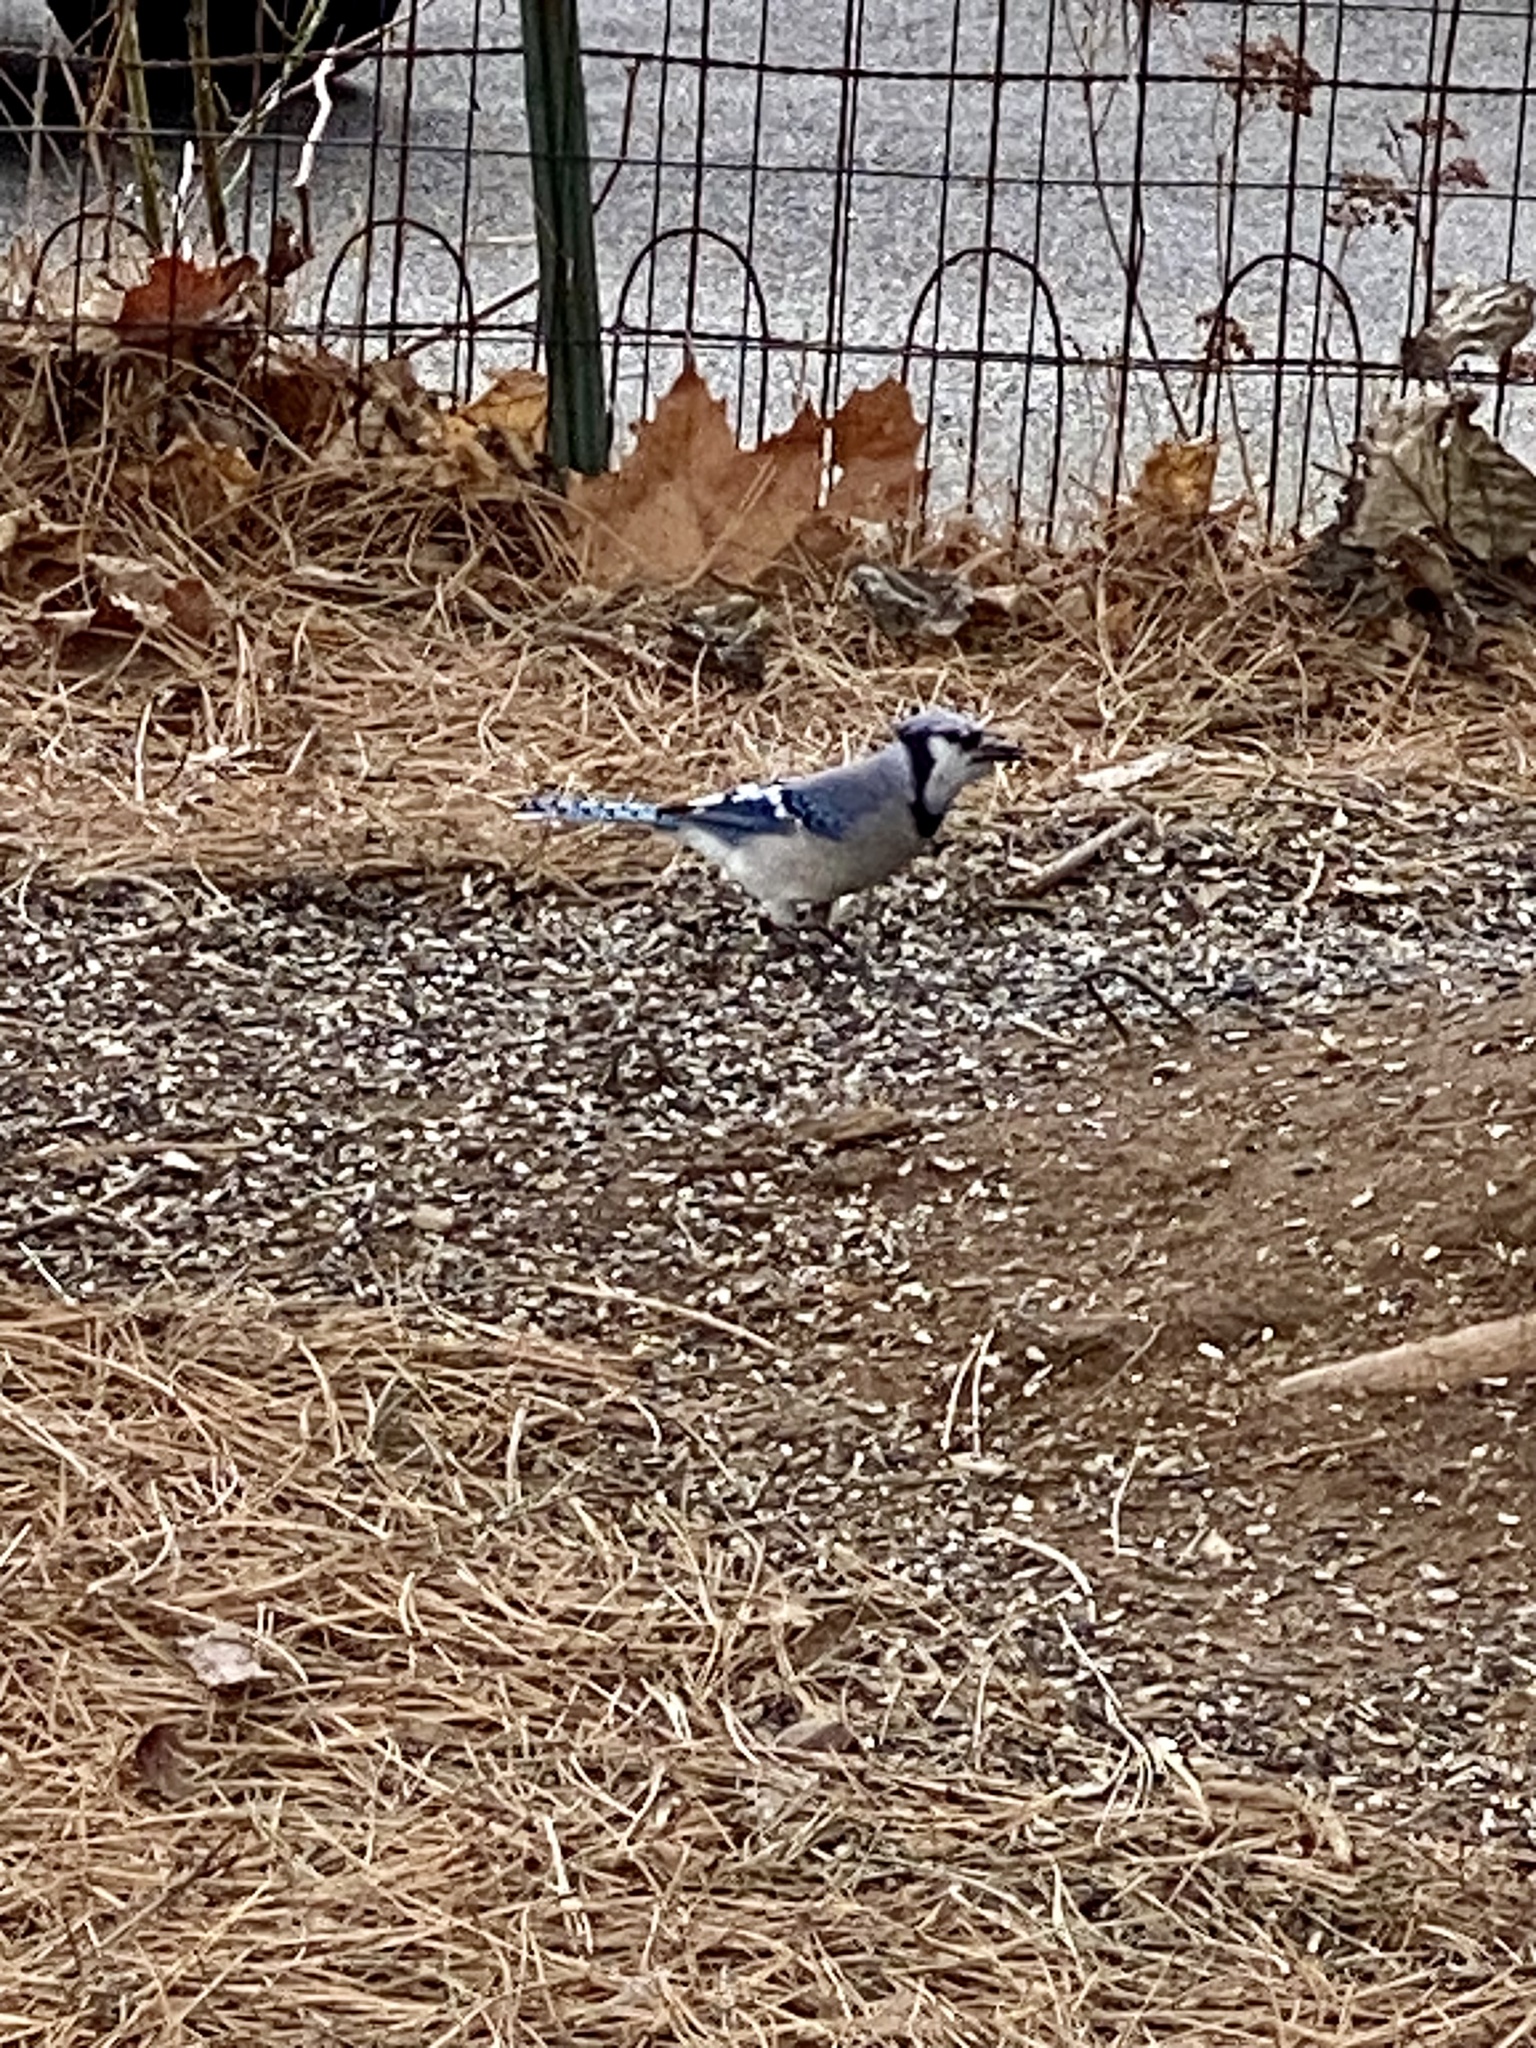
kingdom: Animalia
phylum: Chordata
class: Aves
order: Passeriformes
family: Corvidae
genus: Cyanocitta
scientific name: Cyanocitta cristata
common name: Blue jay
